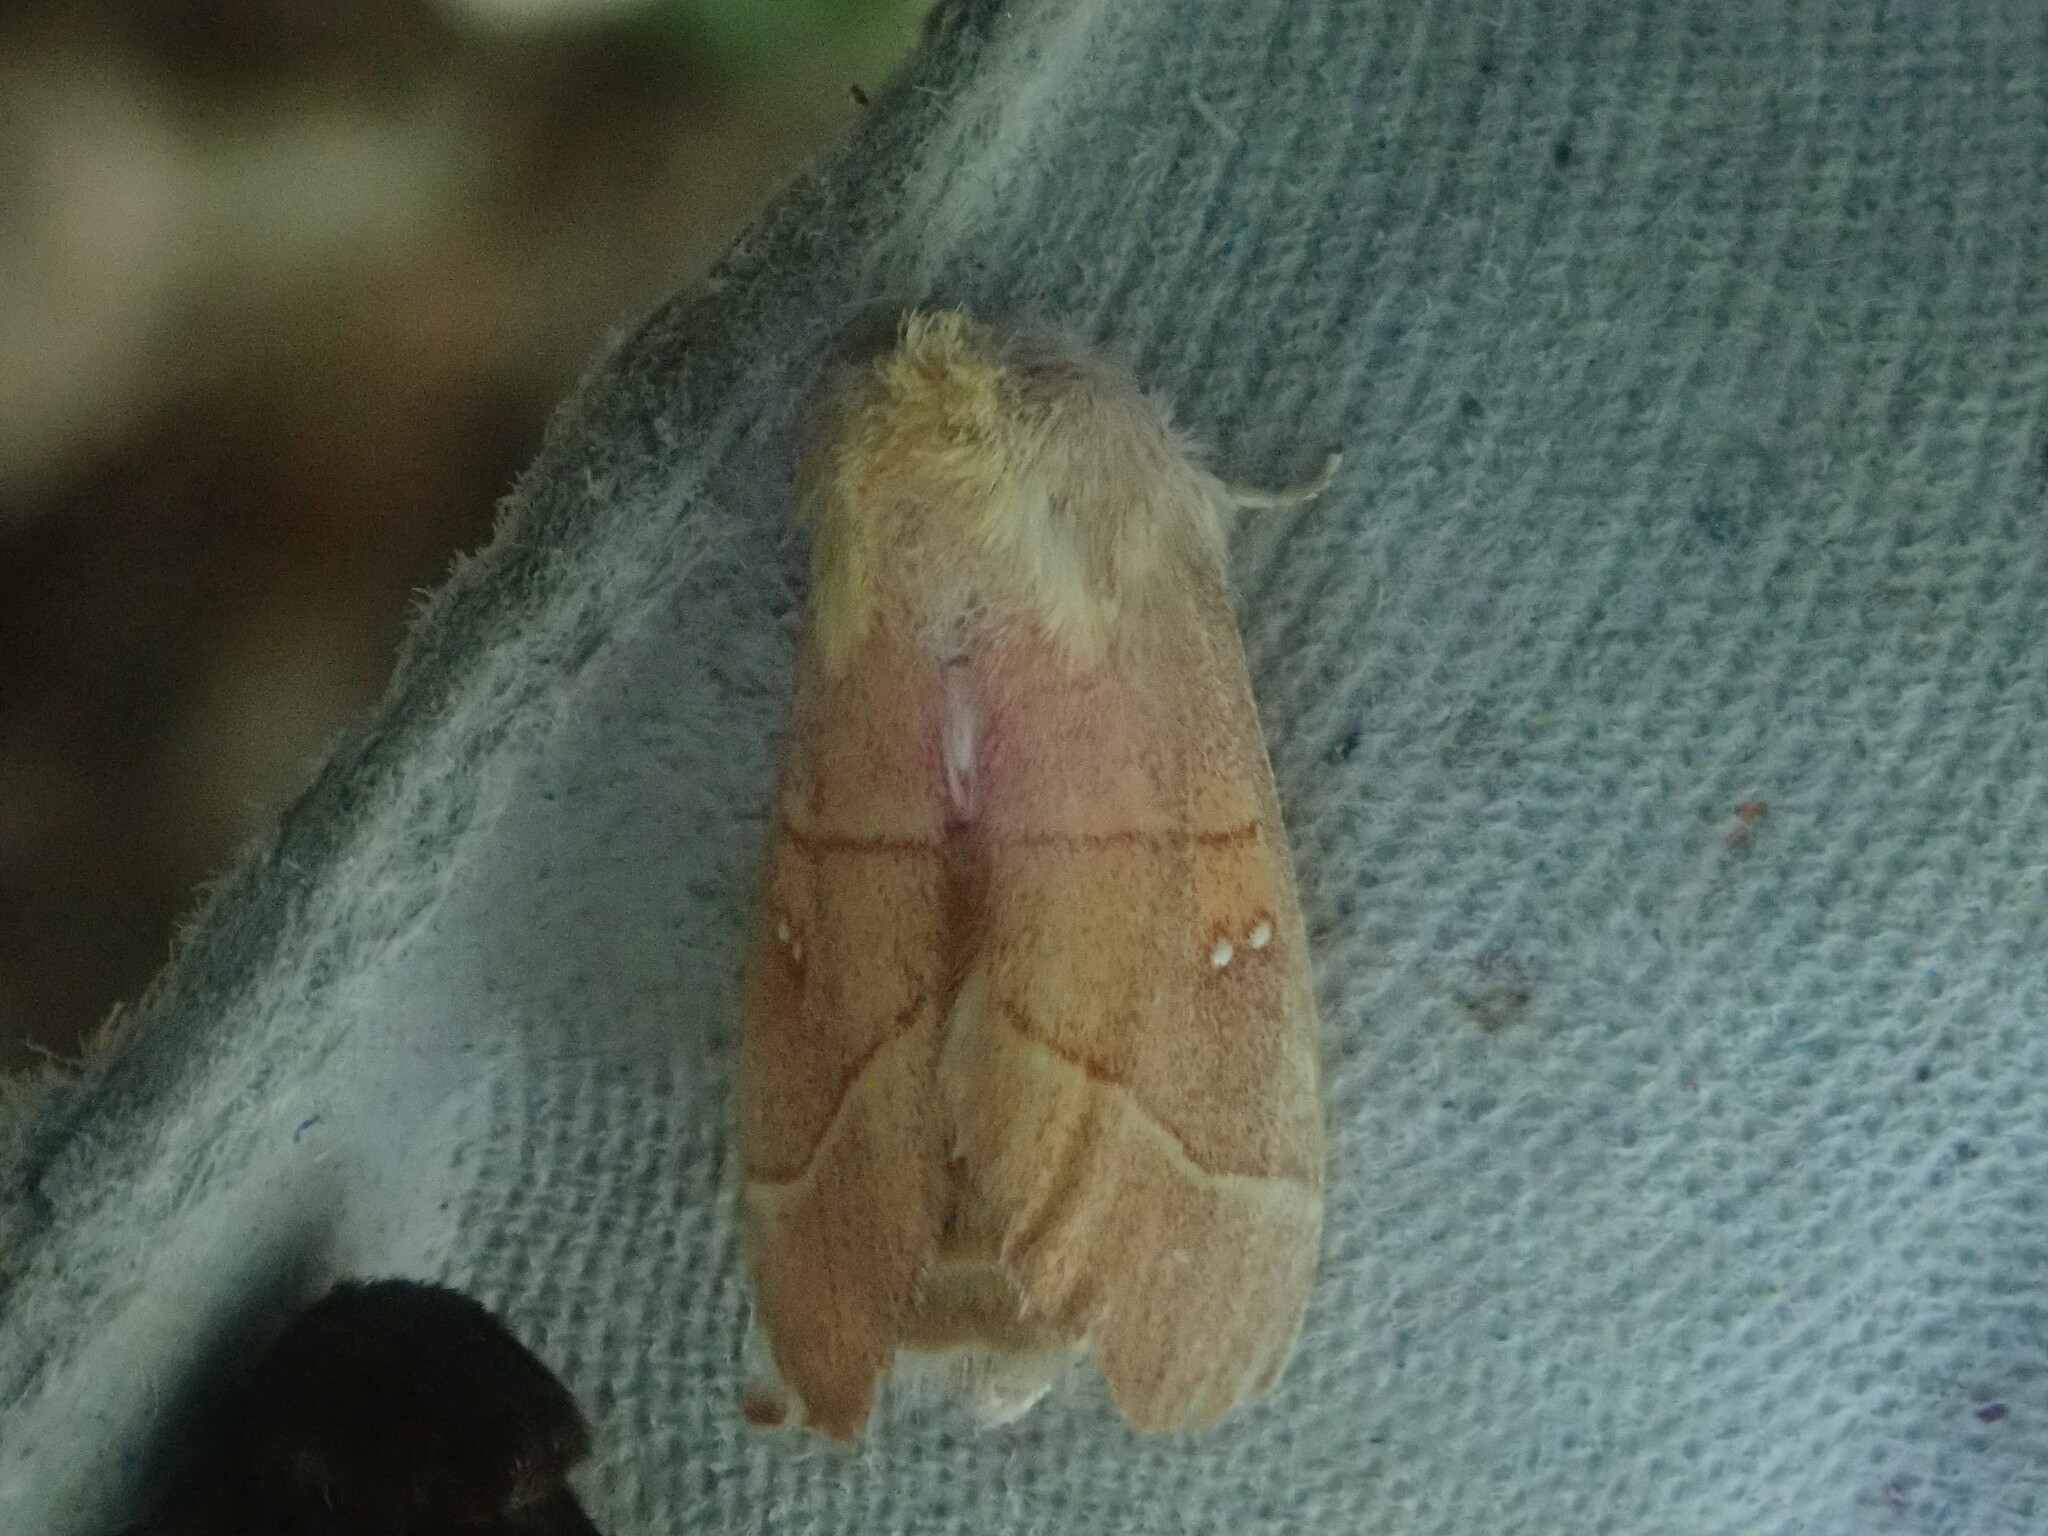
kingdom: Animalia
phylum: Arthropoda
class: Insecta
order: Lepidoptera
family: Notodontidae
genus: Nadata
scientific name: Nadata gibbosa
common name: White-dotted prominent
